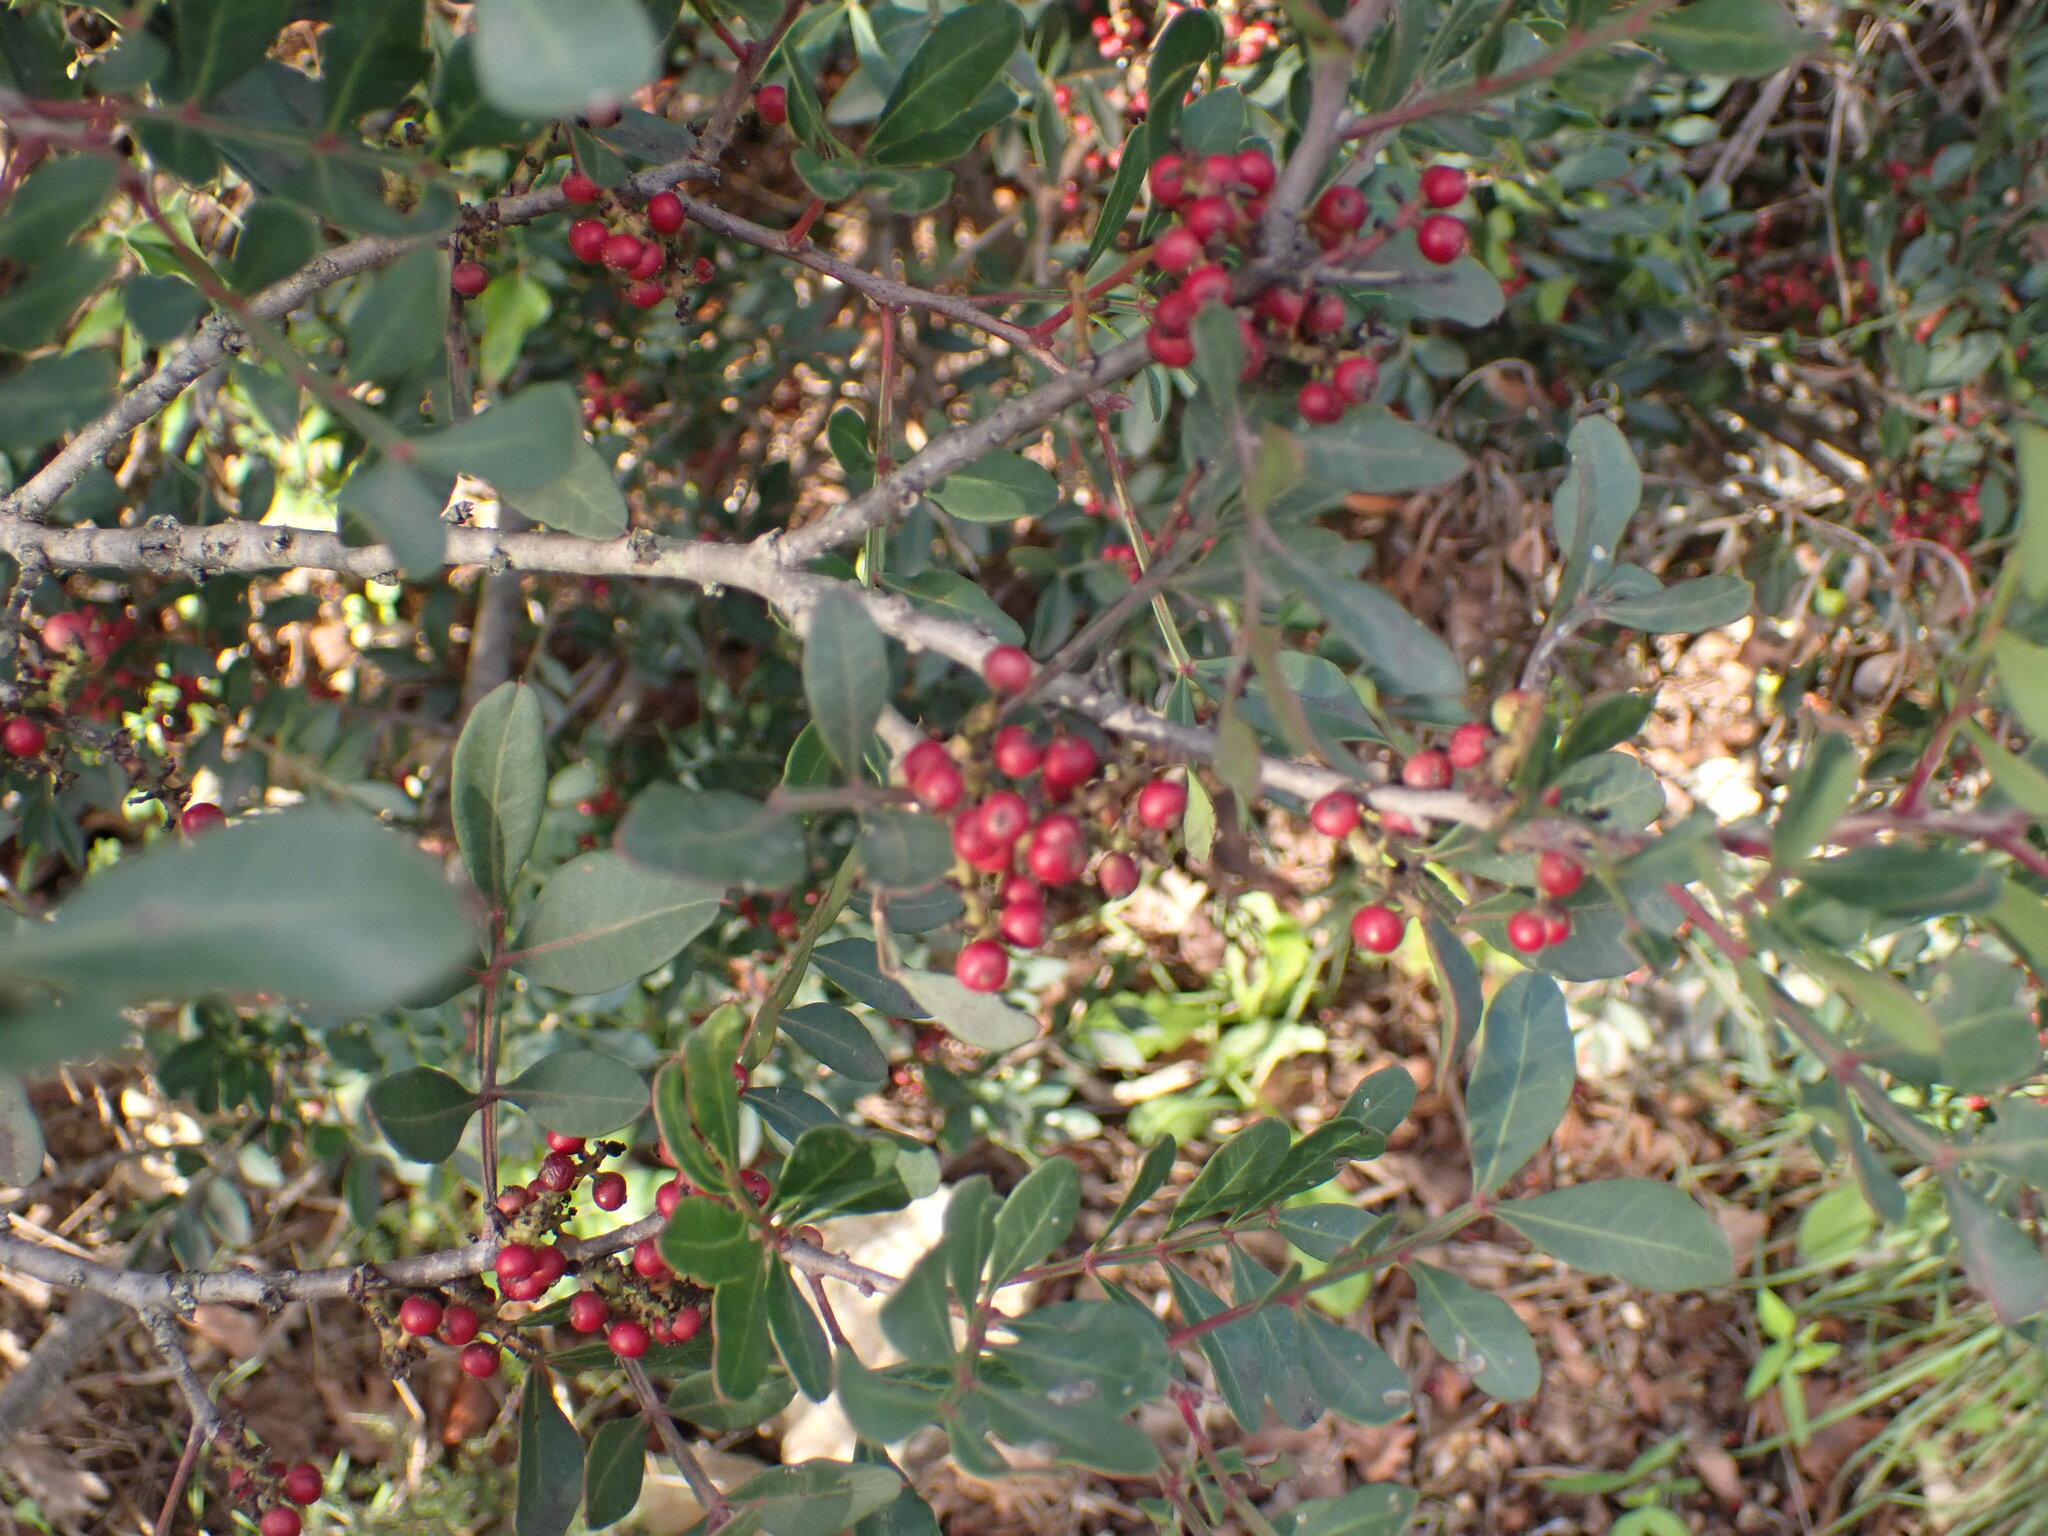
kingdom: Plantae
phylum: Tracheophyta
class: Magnoliopsida
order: Sapindales
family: Anacardiaceae
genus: Pistacia
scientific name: Pistacia lentiscus
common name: Lentisk
